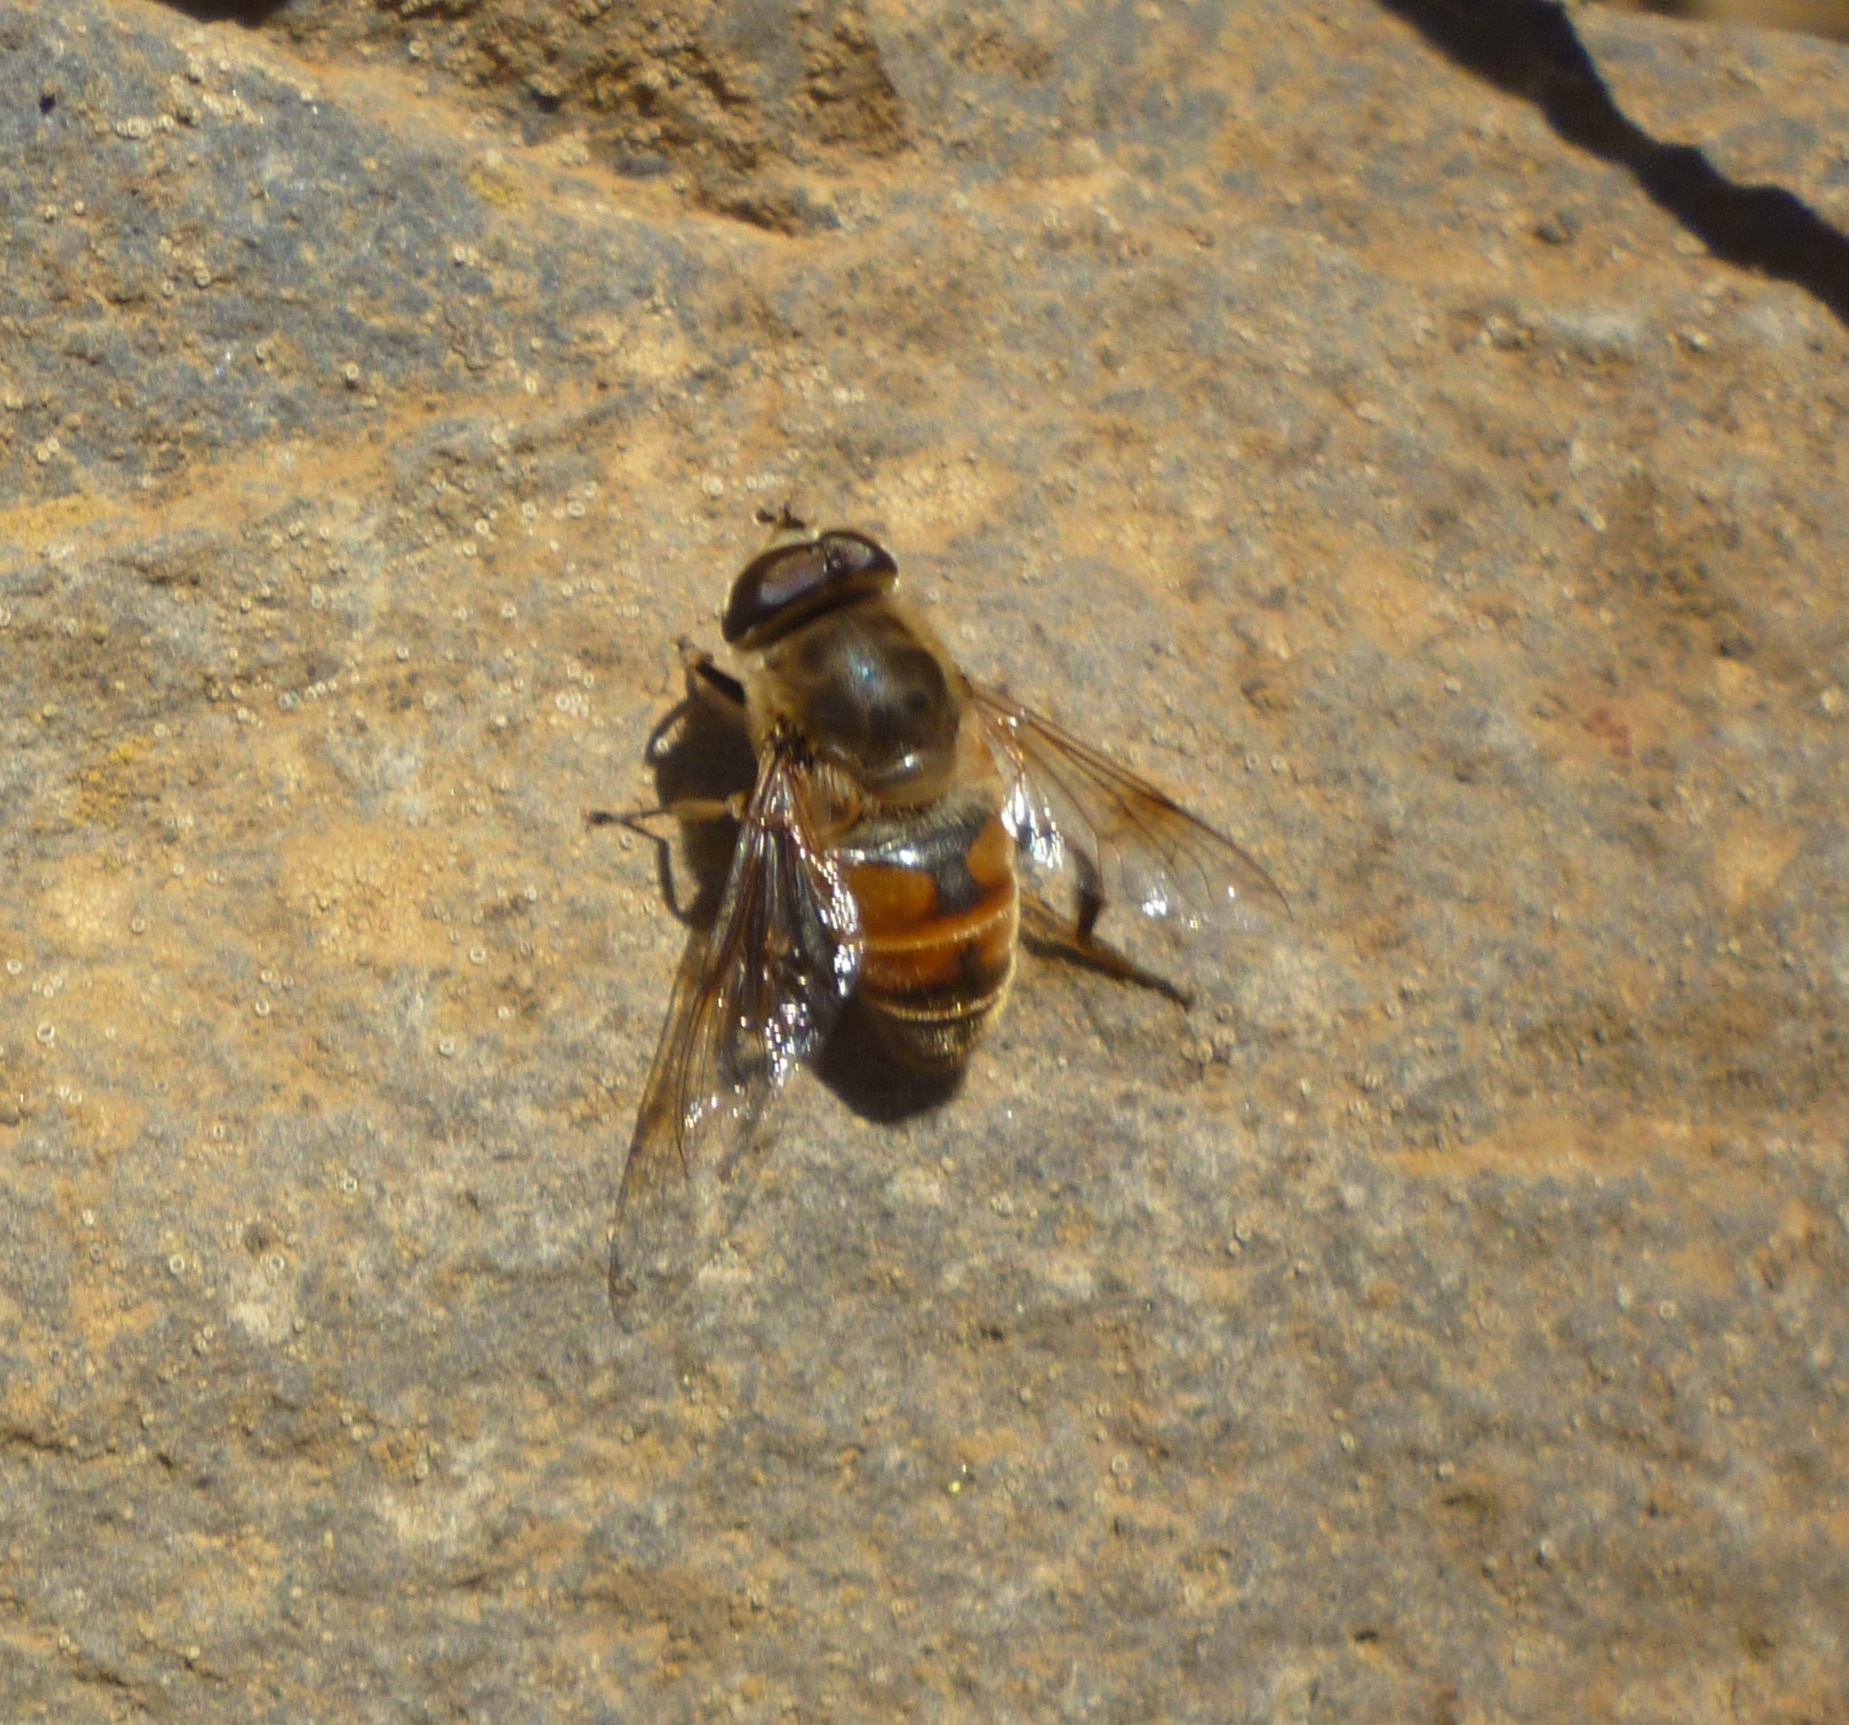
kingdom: Animalia
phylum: Arthropoda
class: Insecta
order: Diptera
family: Syrphidae
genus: Eristalis
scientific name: Eristalis tenax
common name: Drone fly
